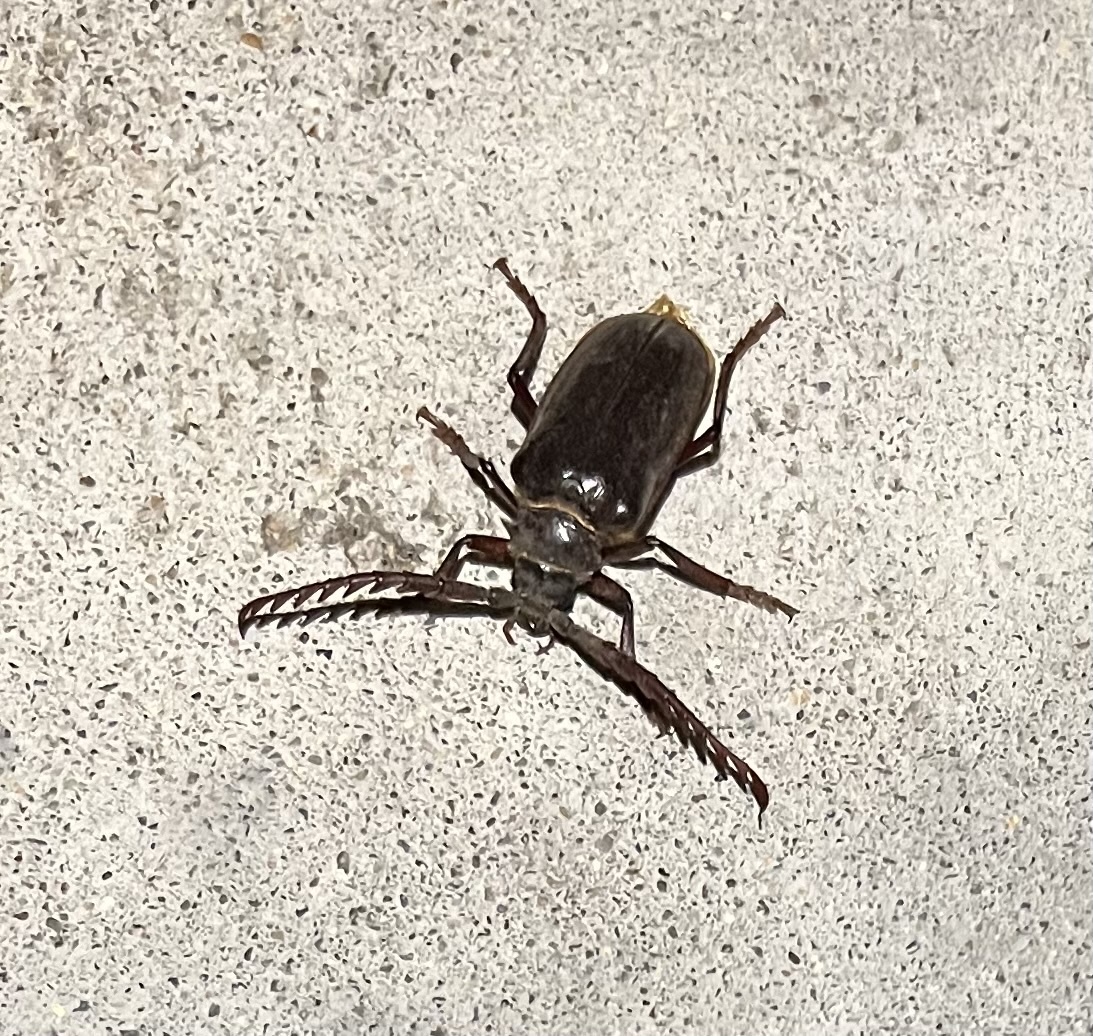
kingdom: Animalia
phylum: Arthropoda
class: Insecta
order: Coleoptera
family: Cerambycidae
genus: Prionus
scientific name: Prionus californicus
